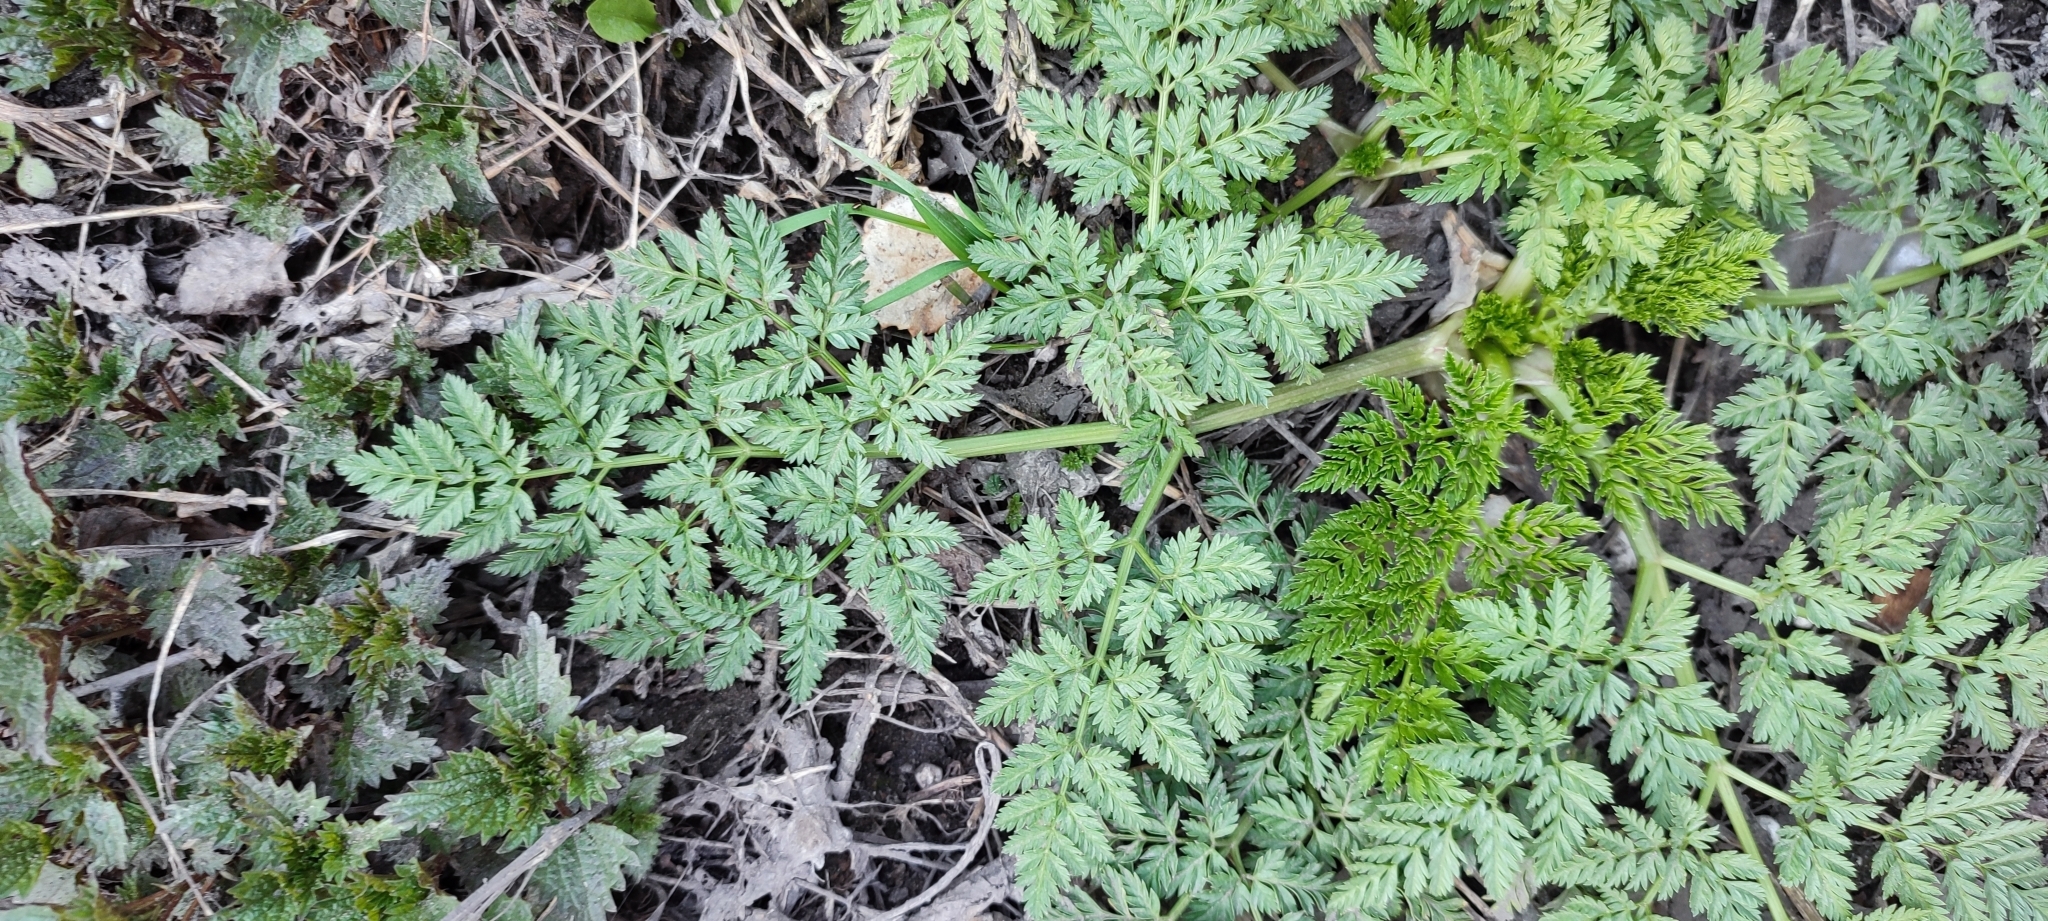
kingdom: Plantae
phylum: Tracheophyta
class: Magnoliopsida
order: Apiales
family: Apiaceae
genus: Anthriscus
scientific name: Anthriscus sylvestris
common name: Cow parsley
